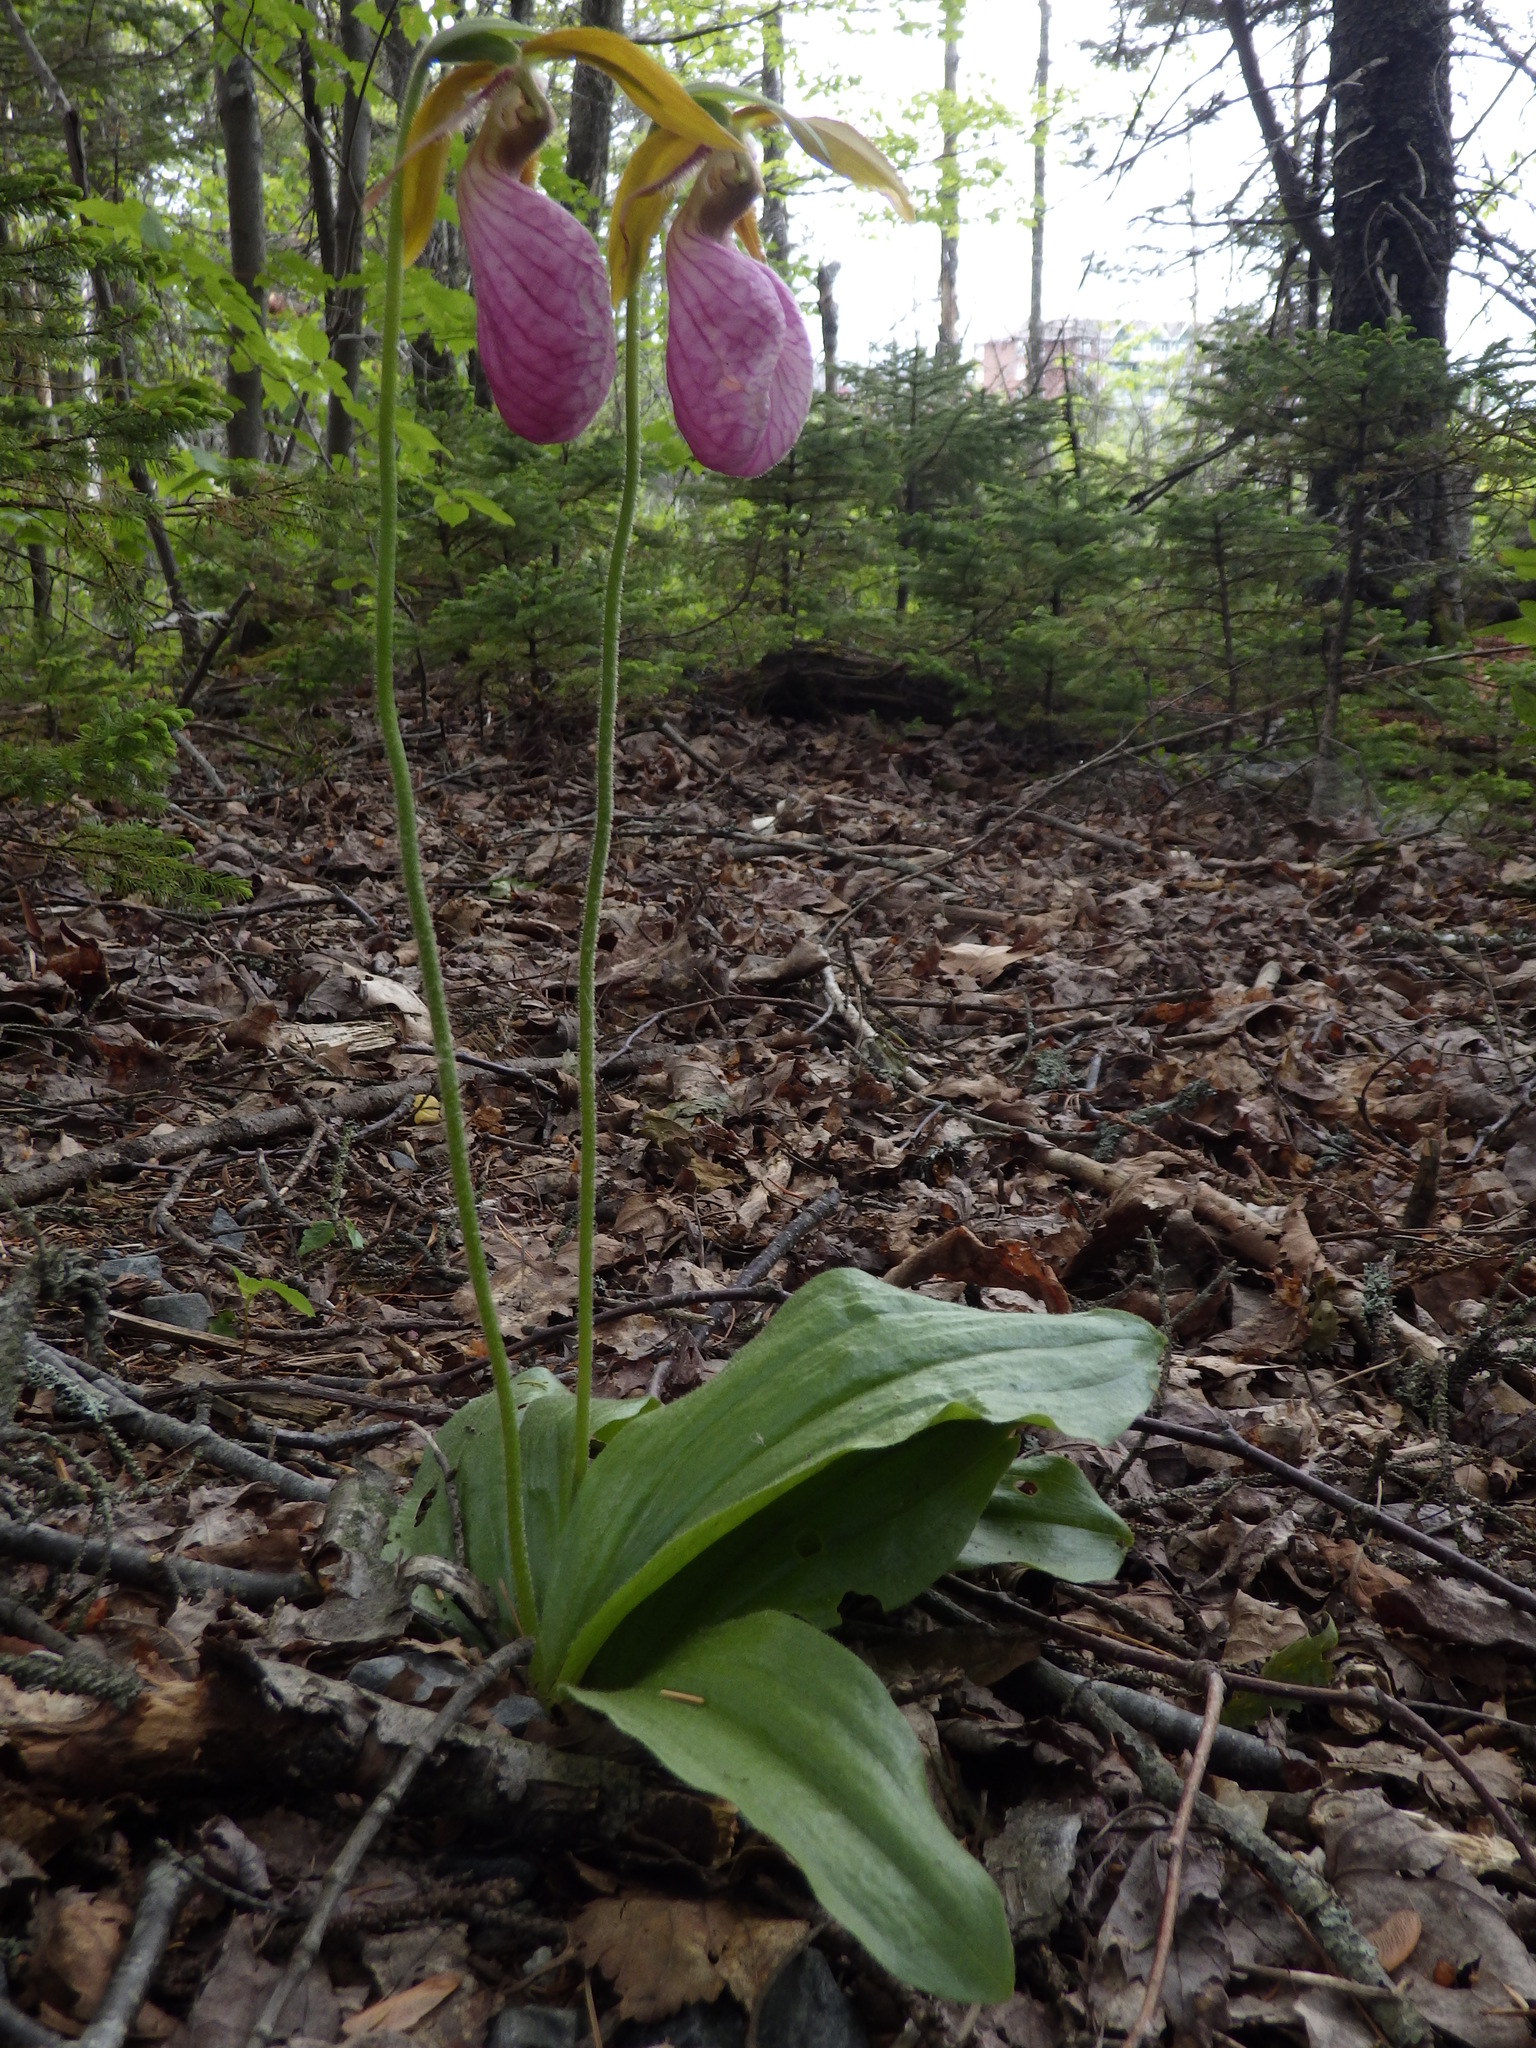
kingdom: Plantae
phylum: Tracheophyta
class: Liliopsida
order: Asparagales
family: Orchidaceae
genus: Cypripedium
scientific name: Cypripedium acaule
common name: Pink lady's-slipper
